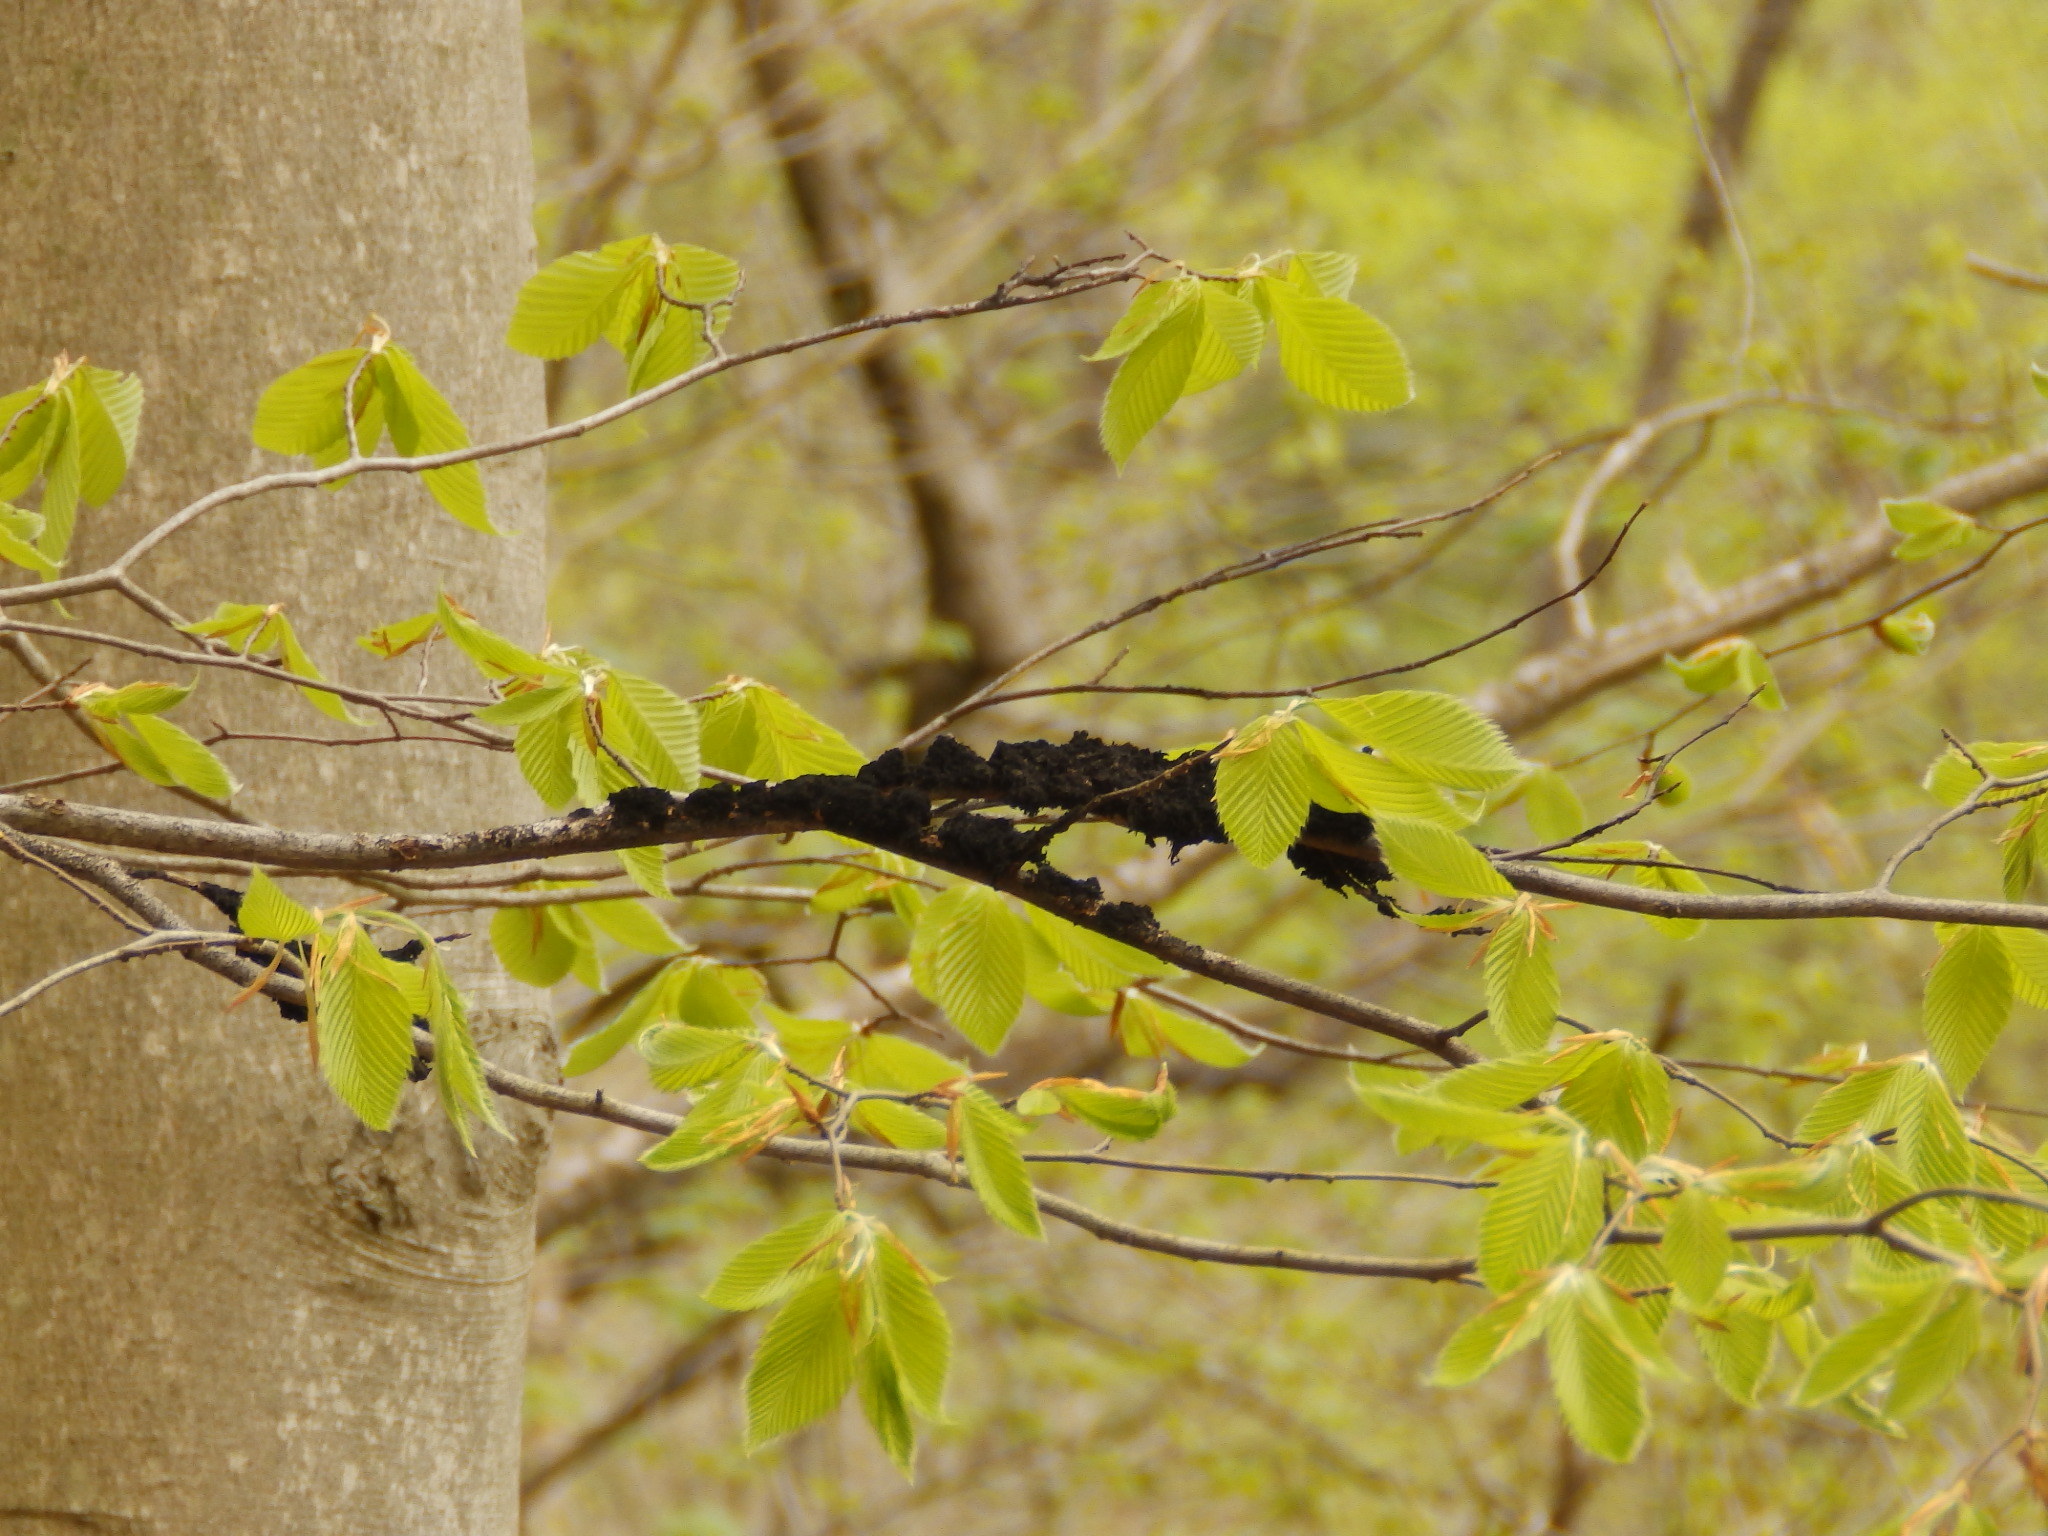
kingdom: Fungi
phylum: Ascomycota
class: Dothideomycetes
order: Venturiales
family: Venturiaceae
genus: Apiosporina
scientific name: Apiosporina morbosa
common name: Black knot
